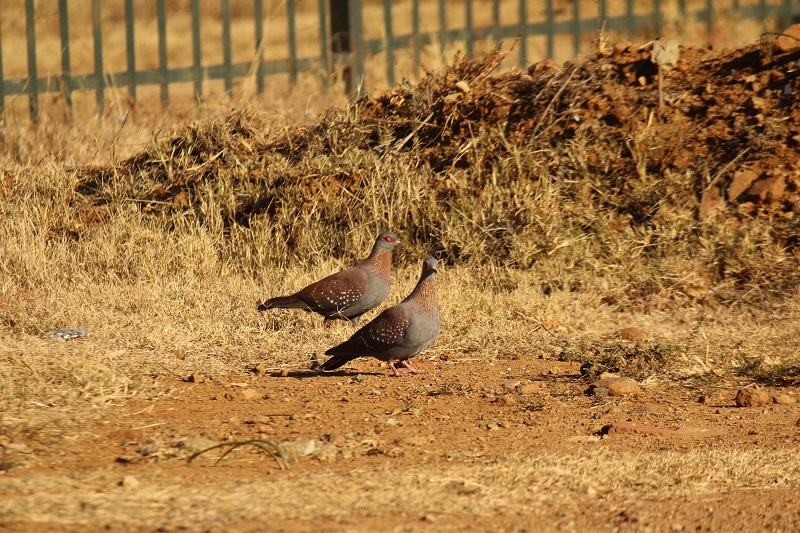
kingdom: Animalia
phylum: Chordata
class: Aves
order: Columbiformes
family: Columbidae
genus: Columba
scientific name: Columba guinea
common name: Speckled pigeon
